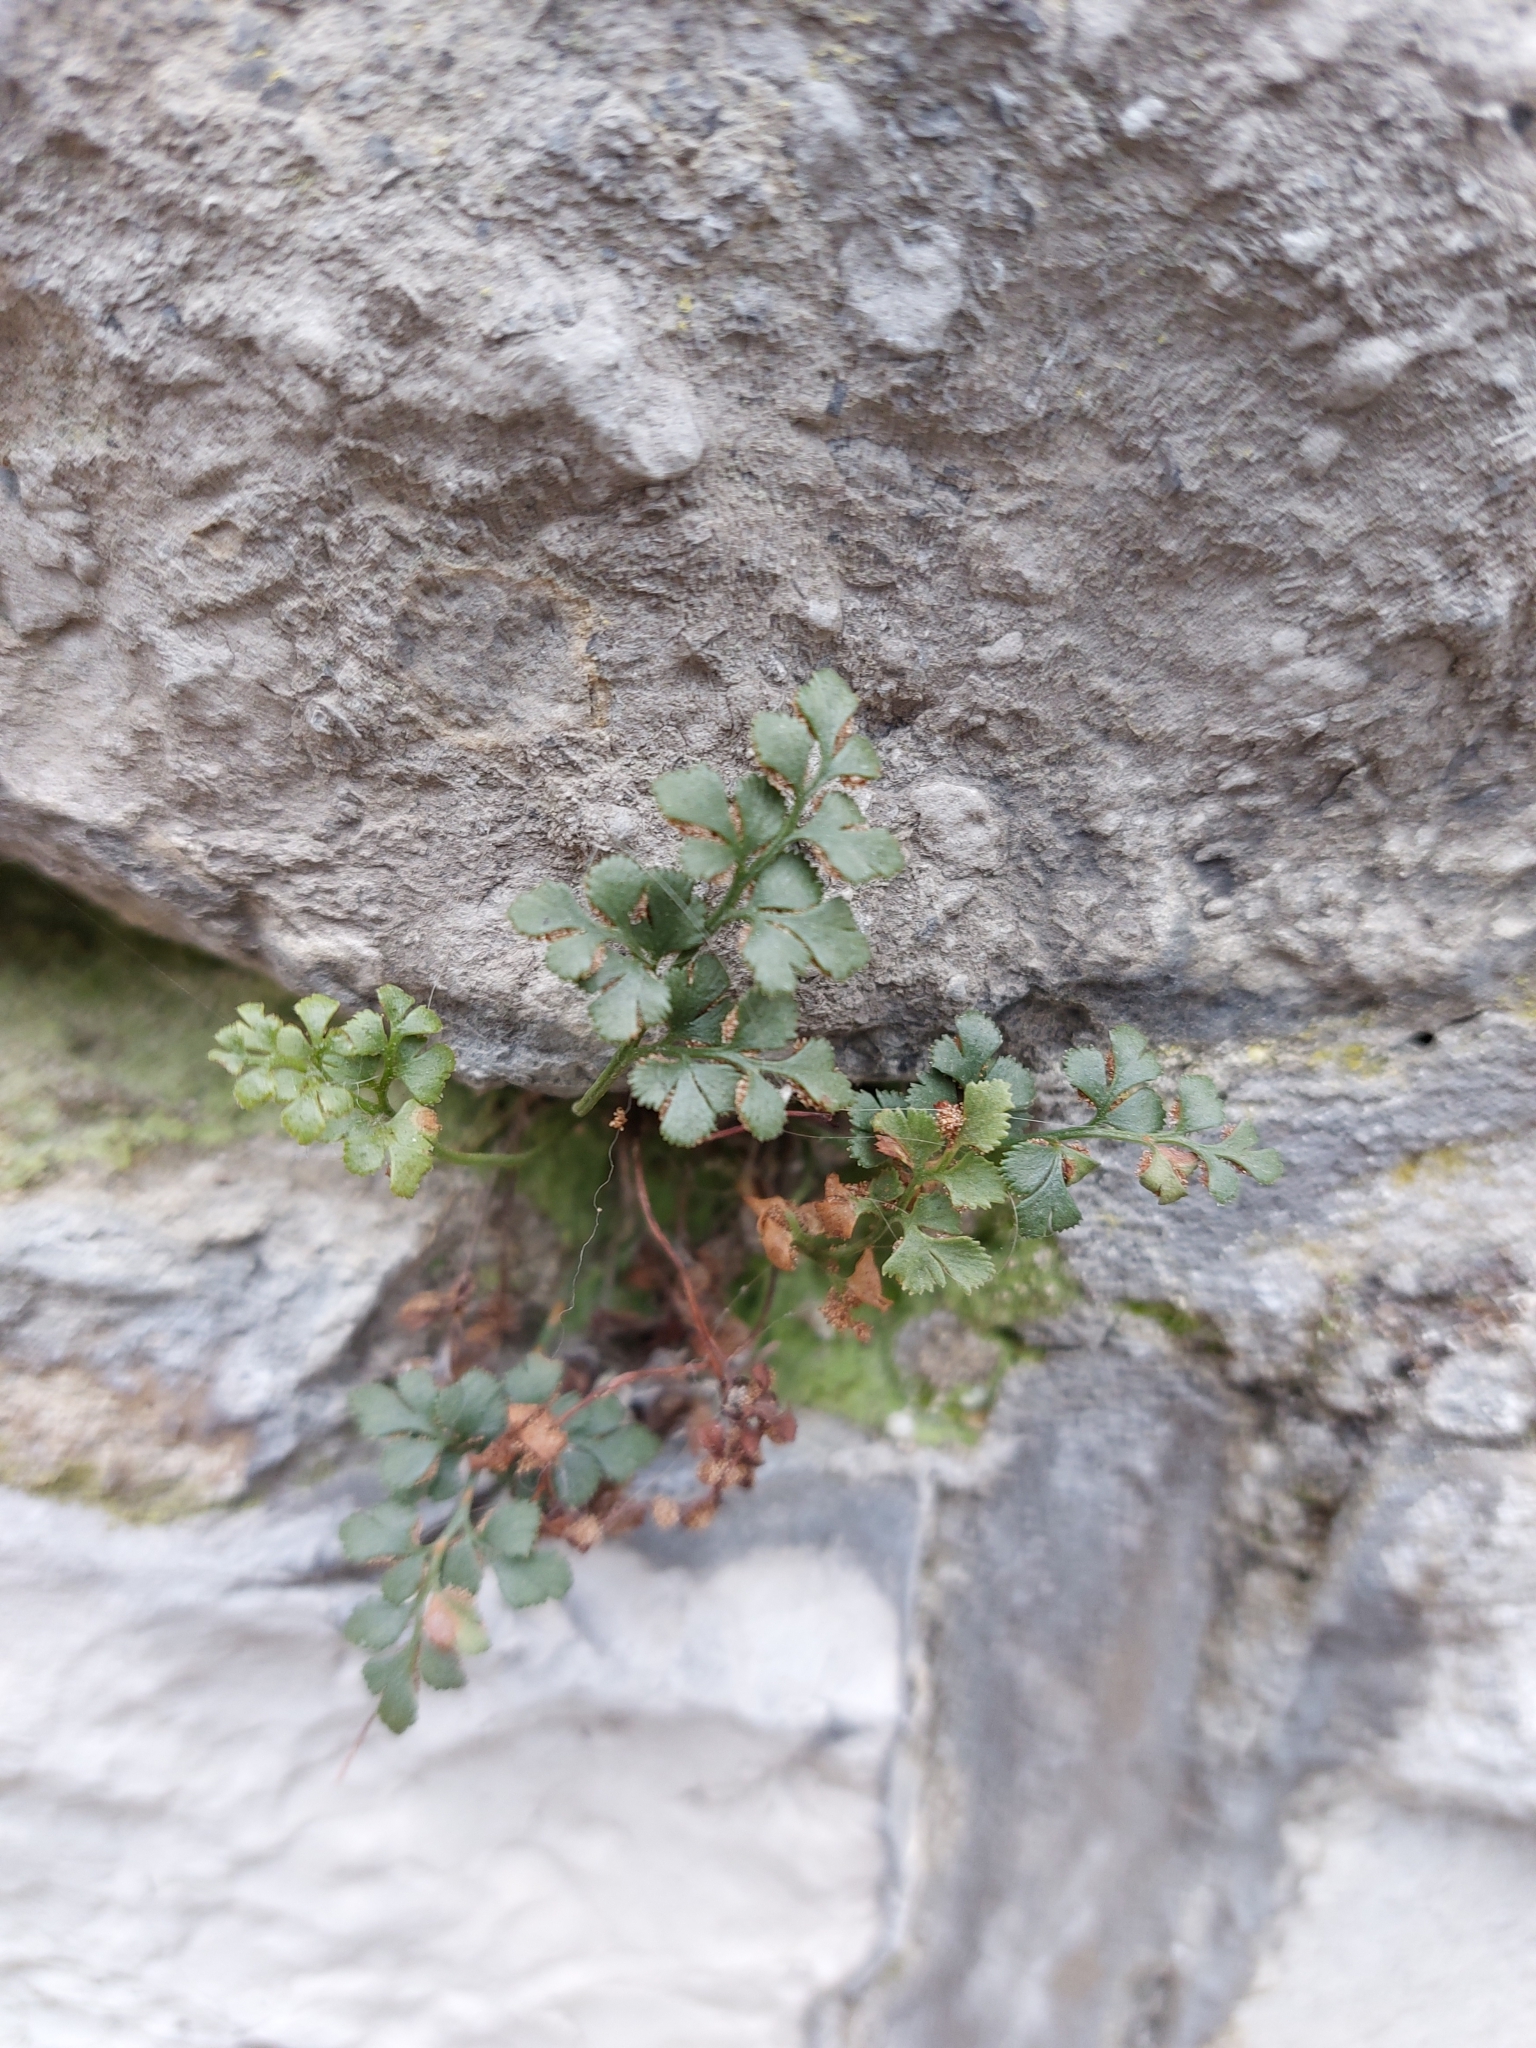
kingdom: Plantae
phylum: Tracheophyta
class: Polypodiopsida
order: Polypodiales
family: Aspleniaceae
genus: Asplenium
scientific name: Asplenium ruta-muraria
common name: Wall-rue
